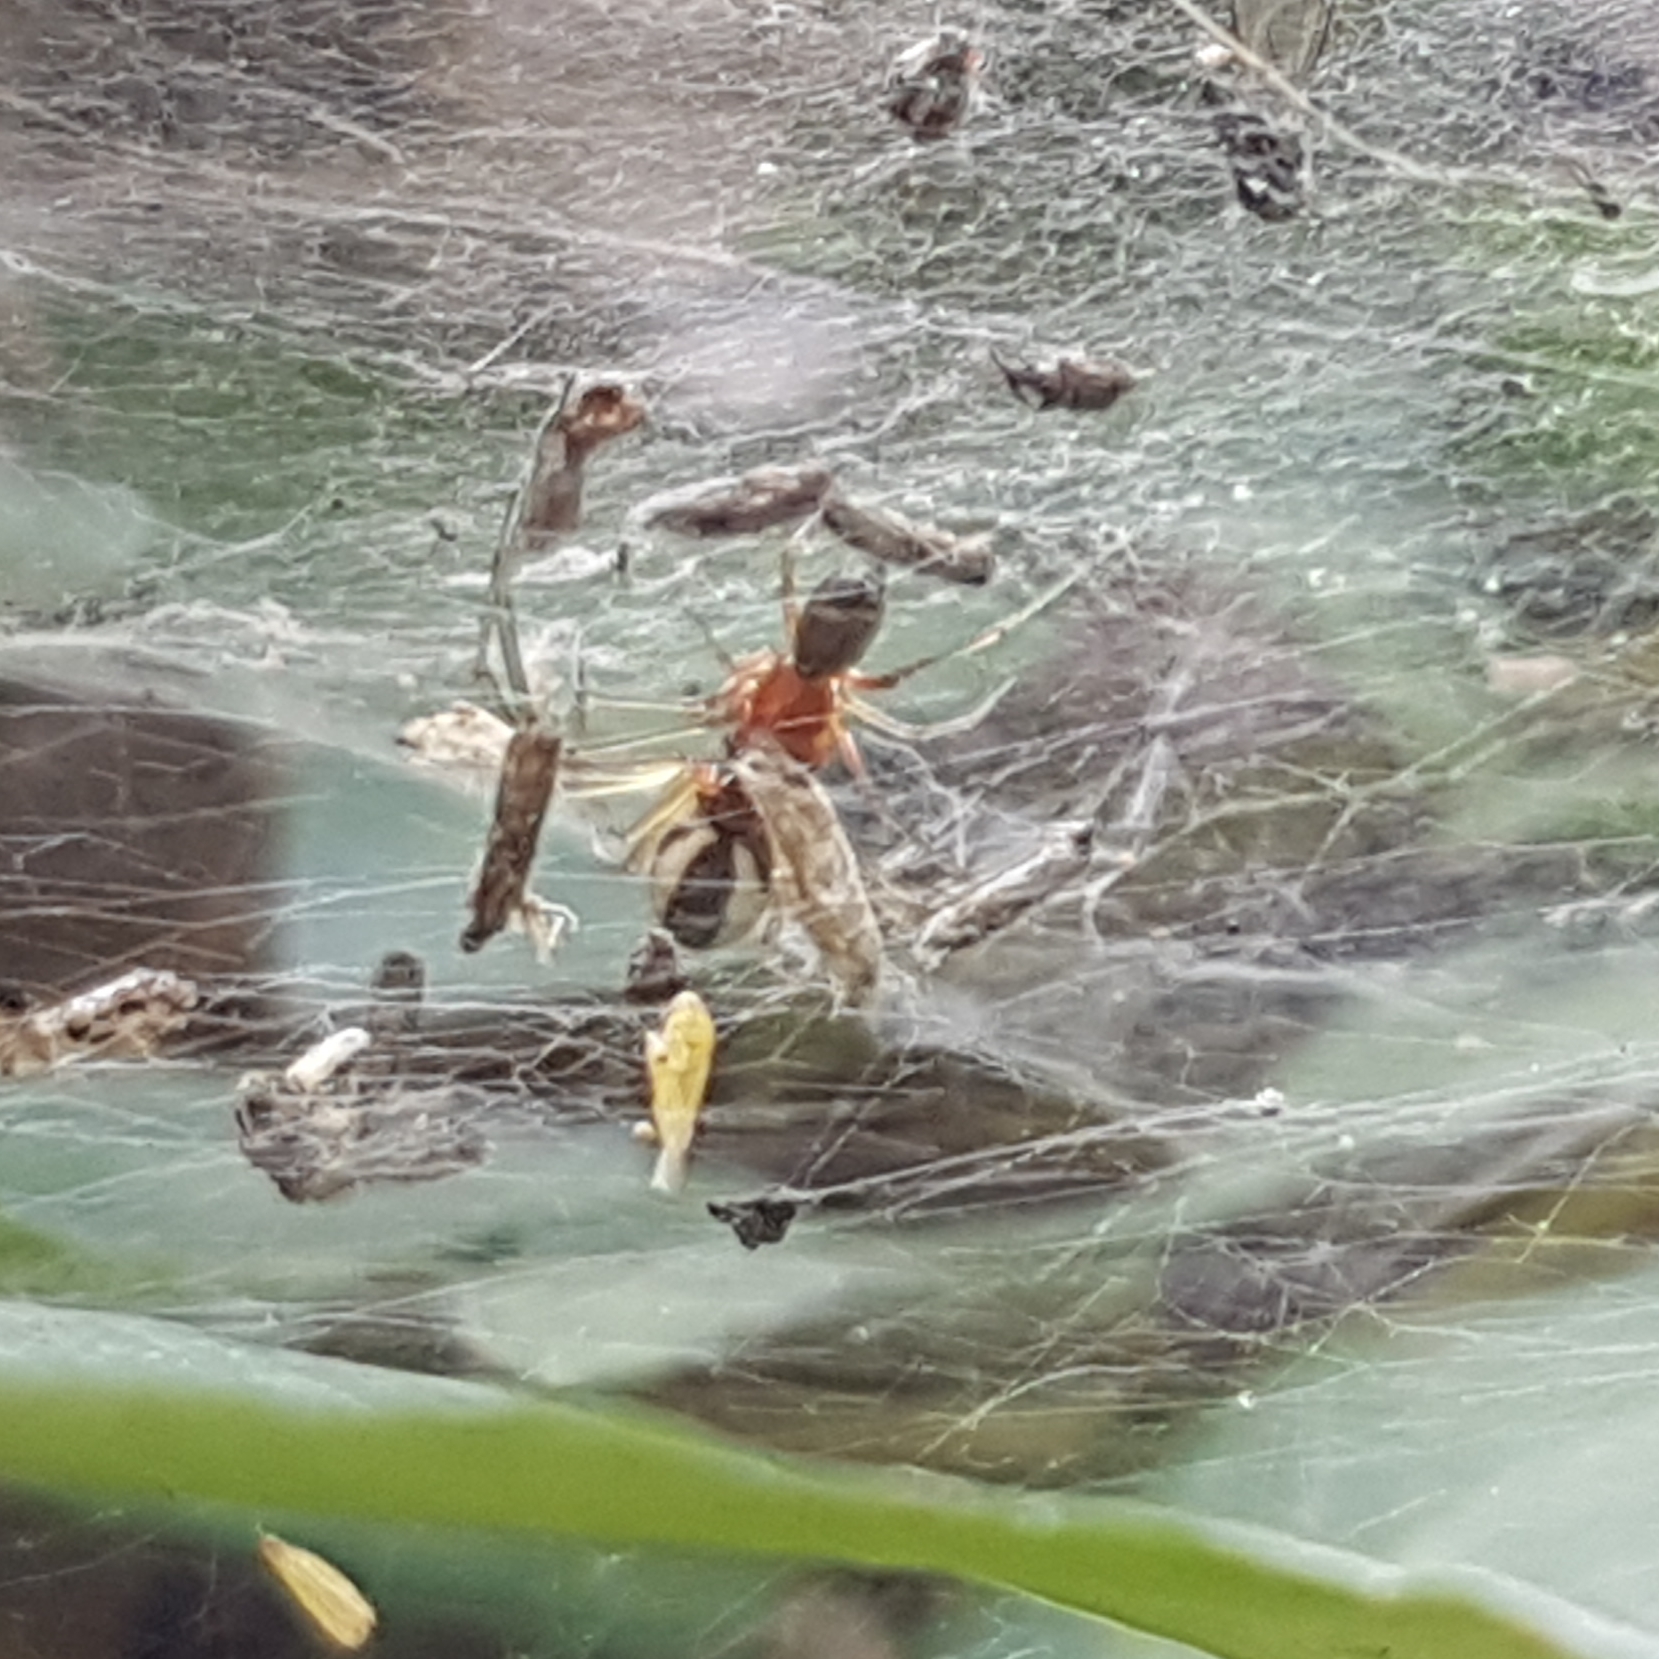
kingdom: Animalia
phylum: Arthropoda
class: Arachnida
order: Araneae
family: Linyphiidae
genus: Frontinellina
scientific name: Frontinellina frutetorum
